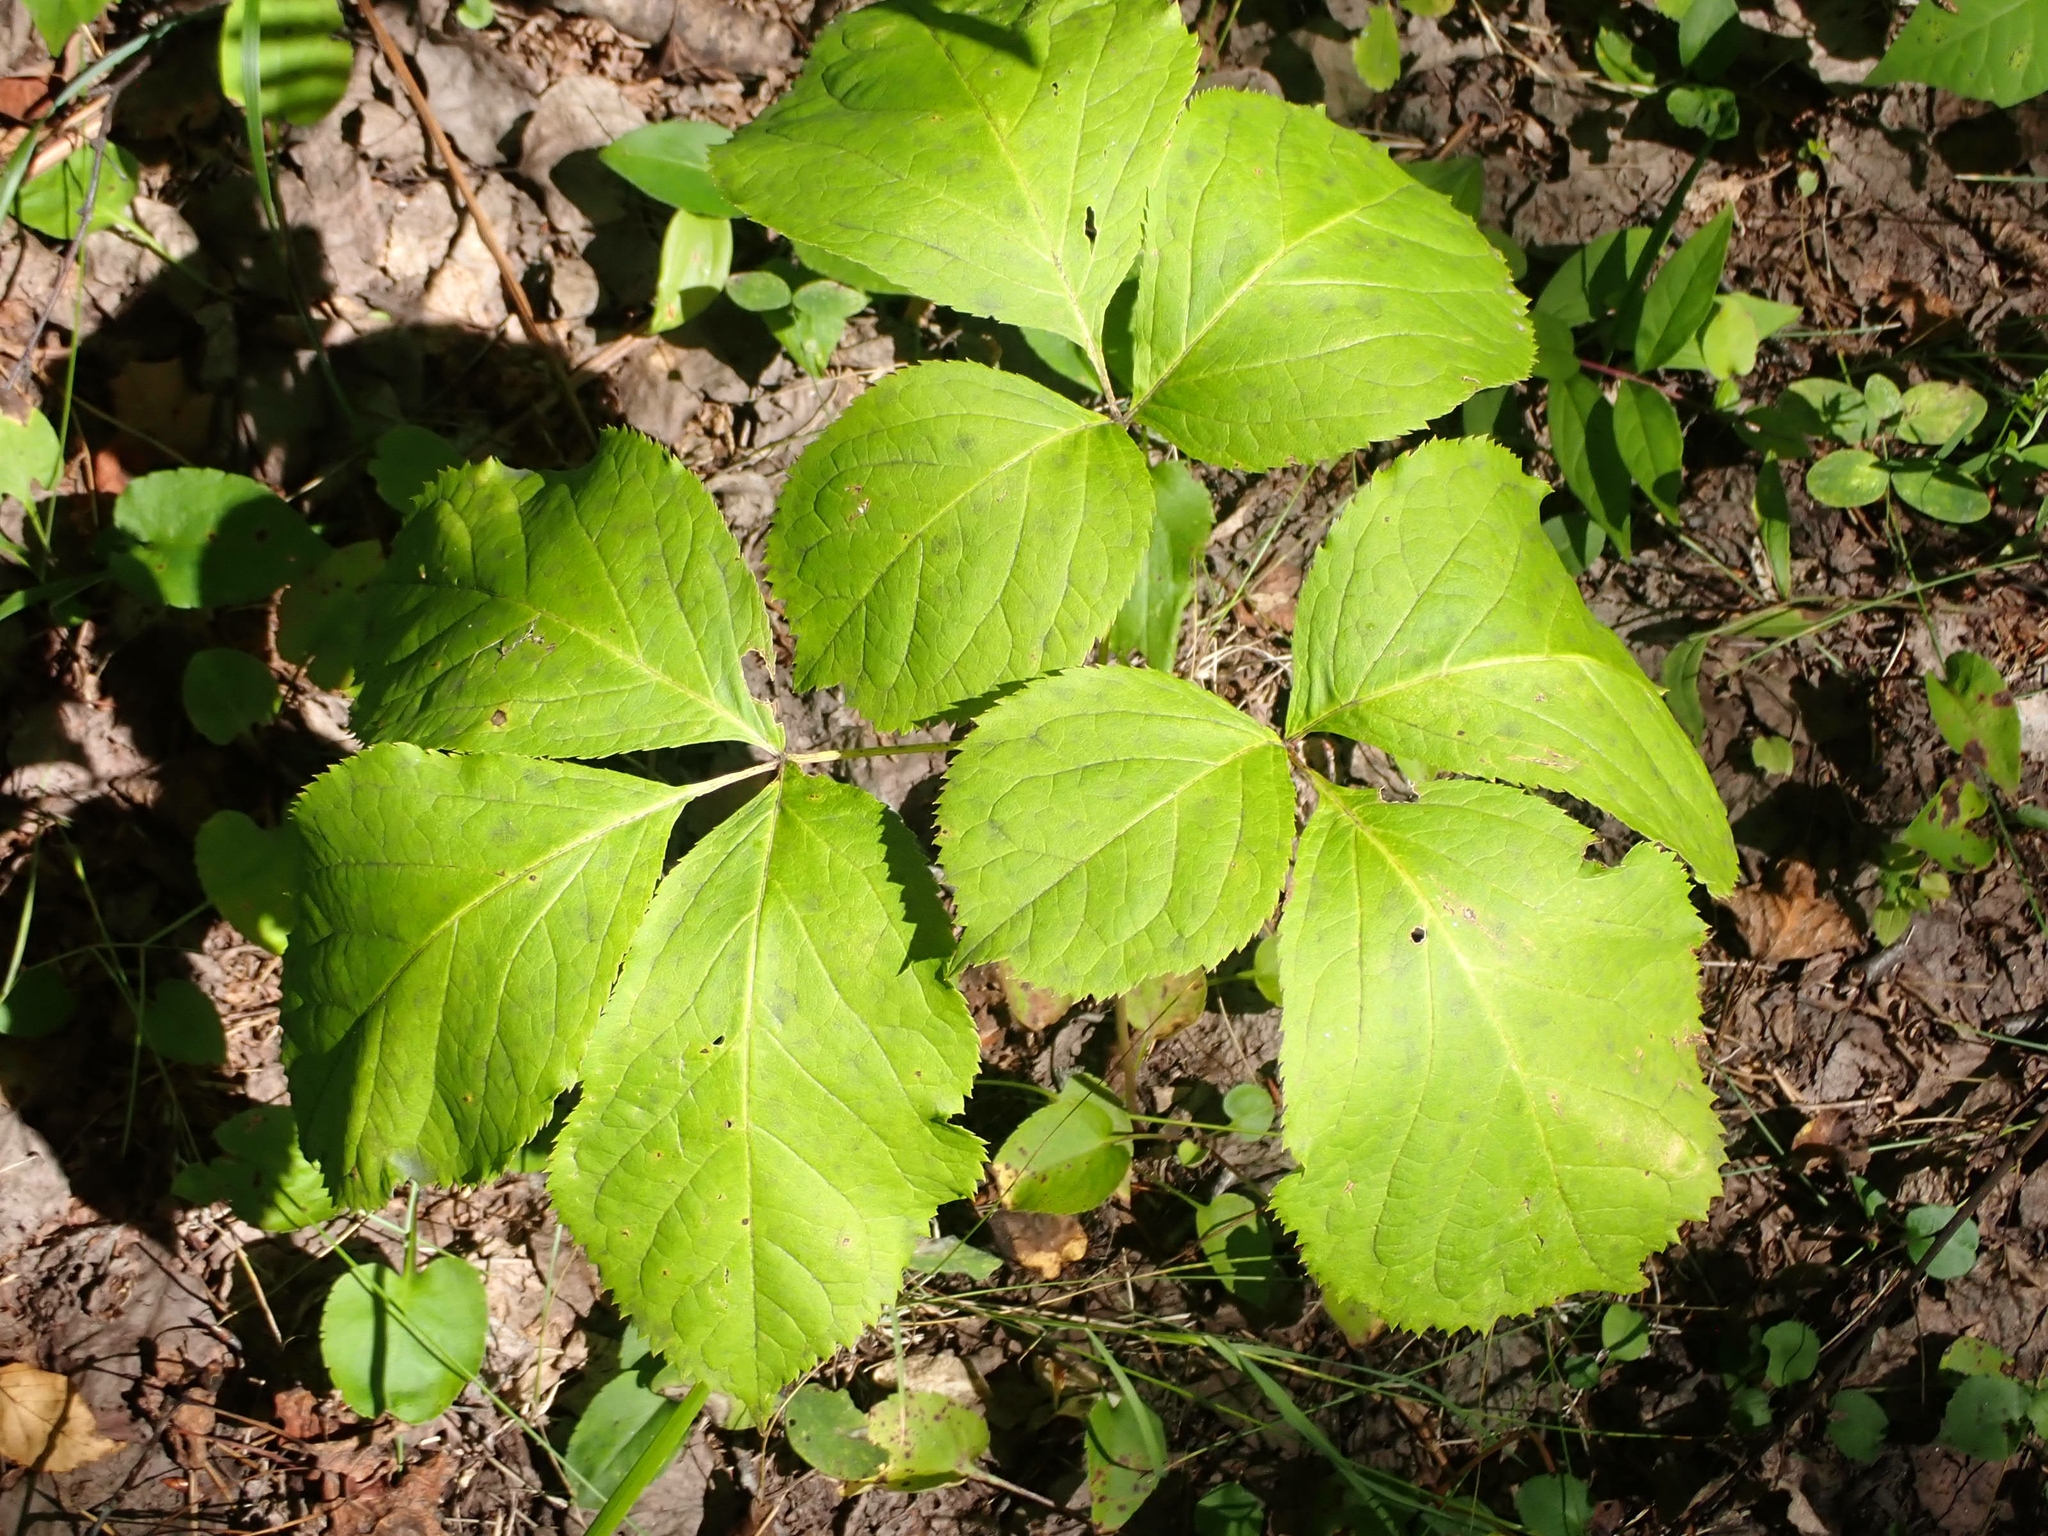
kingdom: Plantae
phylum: Tracheophyta
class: Magnoliopsida
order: Apiales
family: Araliaceae
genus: Aralia
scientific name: Aralia nudicaulis
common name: Wild sarsaparilla
